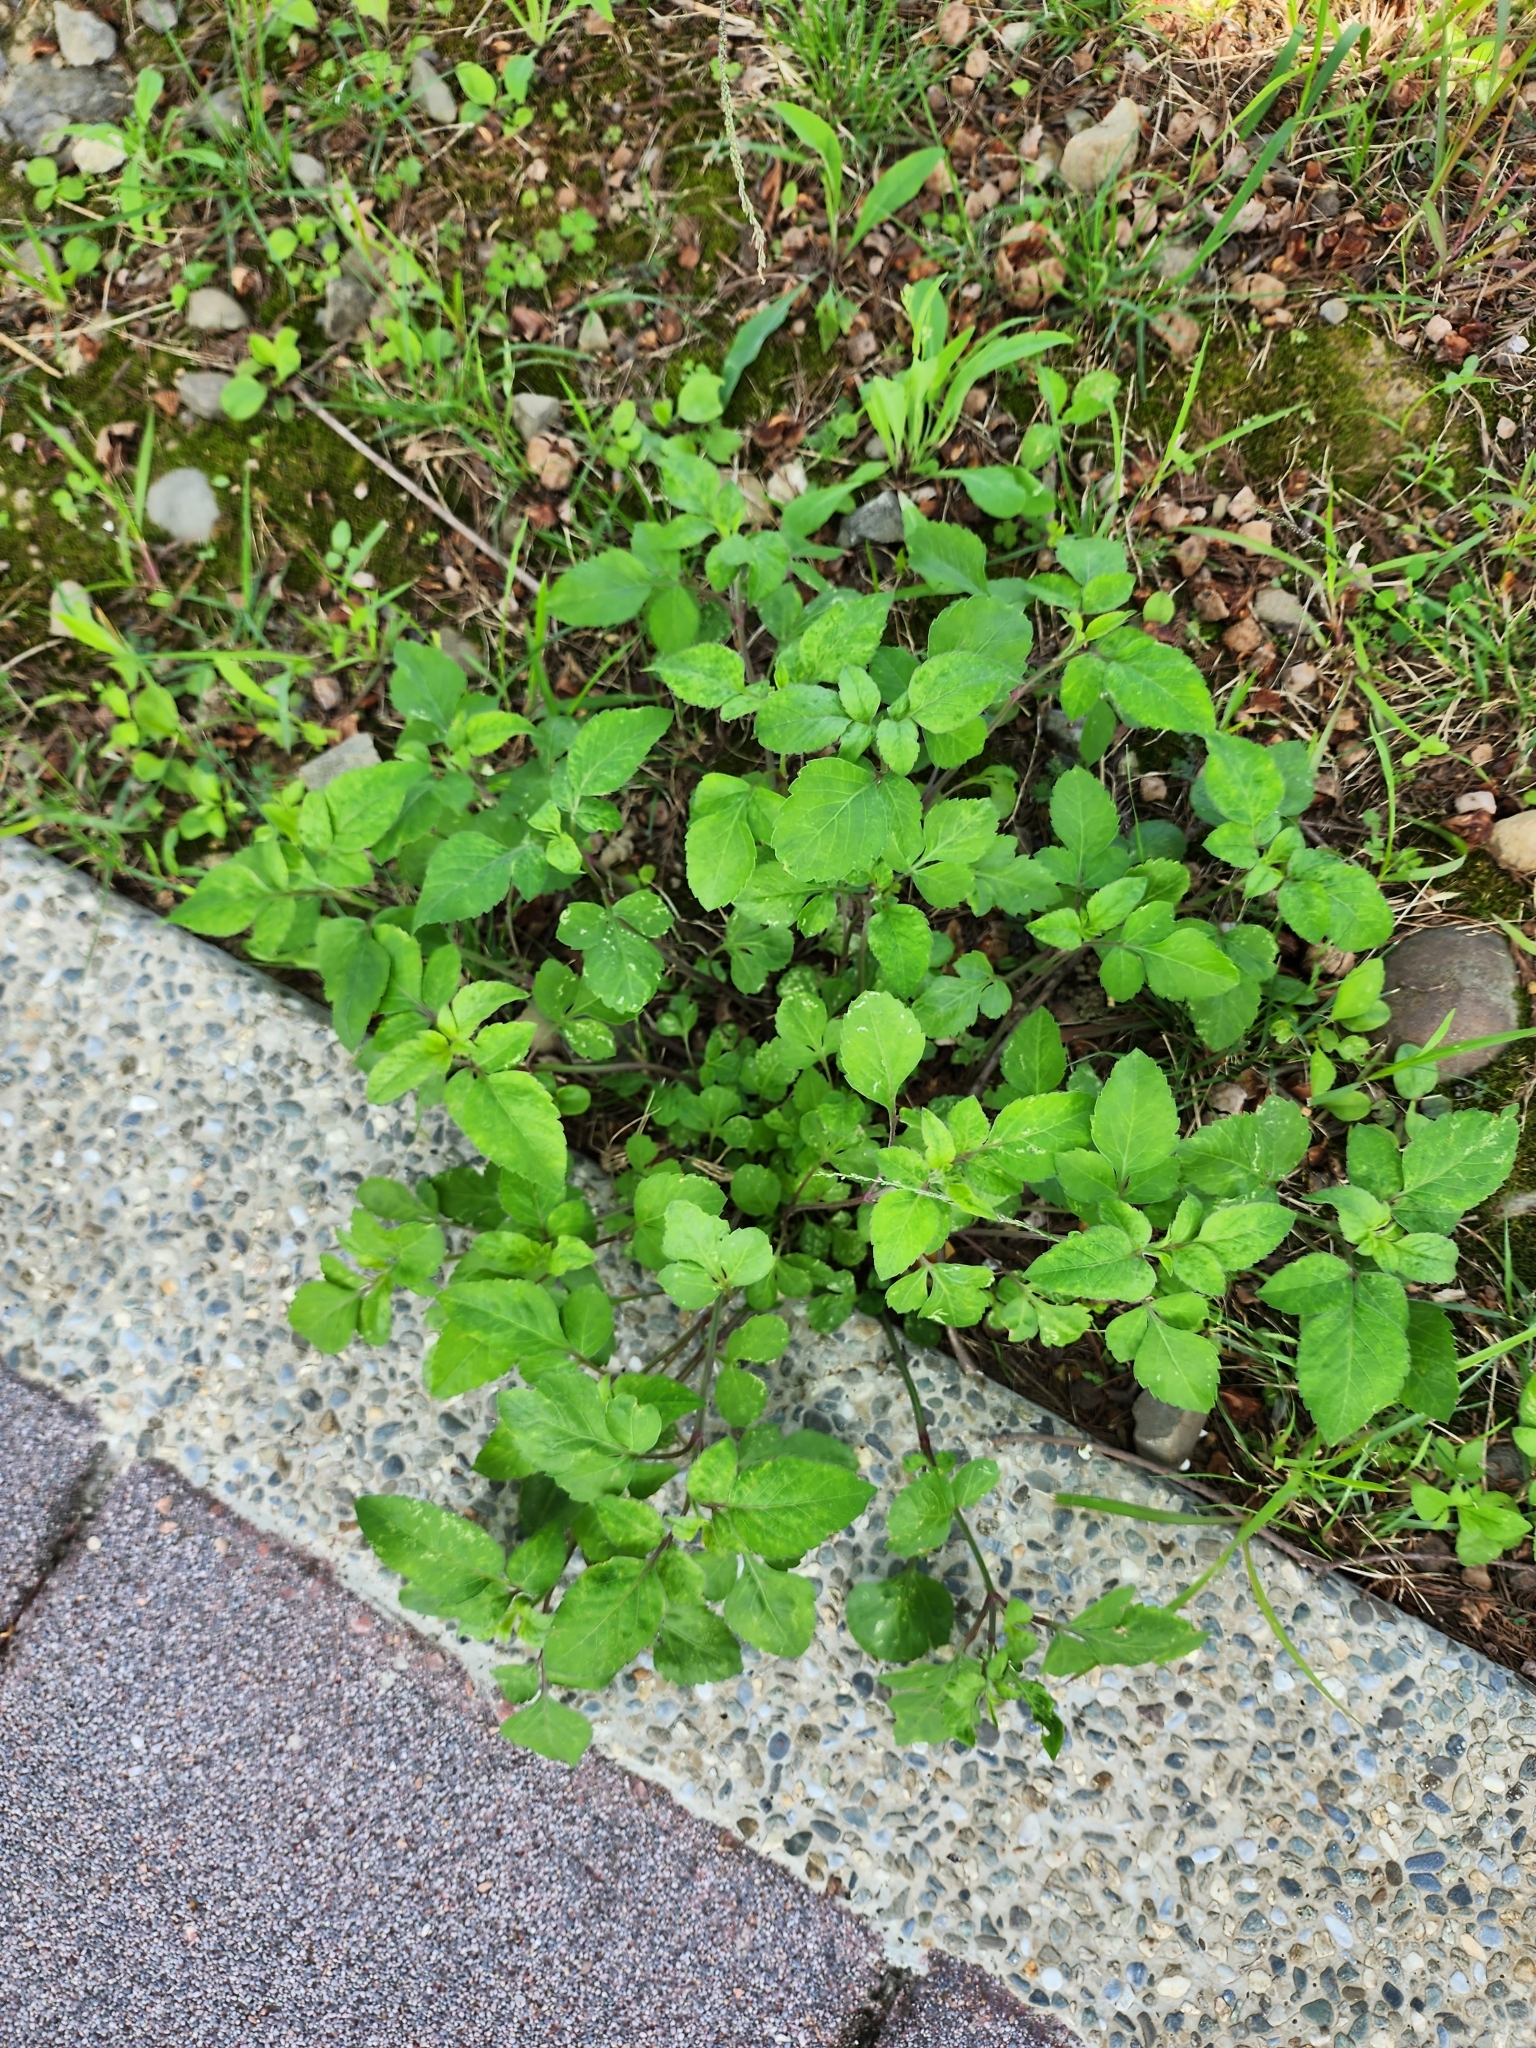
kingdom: Plantae
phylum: Tracheophyta
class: Magnoliopsida
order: Asterales
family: Asteraceae
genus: Bidens
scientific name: Bidens alba
